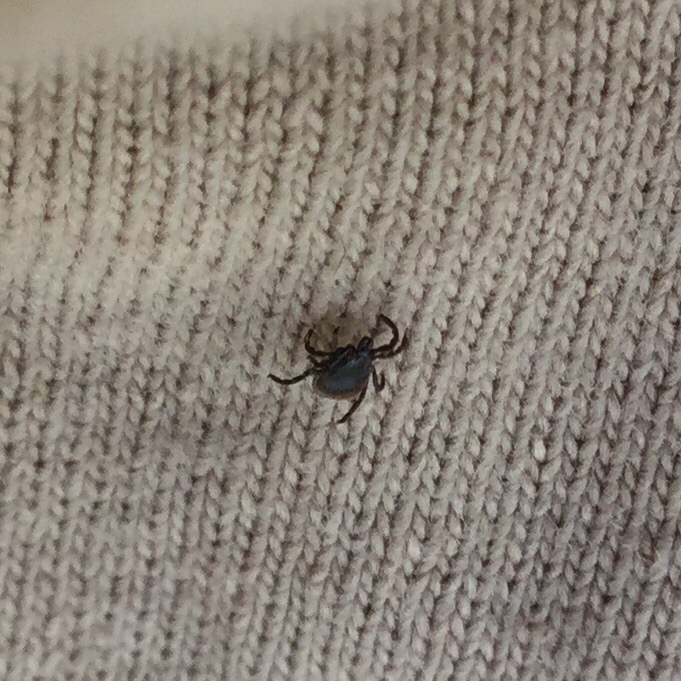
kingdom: Animalia
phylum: Arthropoda
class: Arachnida
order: Ixodida
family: Ixodidae
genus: Ixodes
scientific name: Ixodes scapularis
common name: Black legged tick
